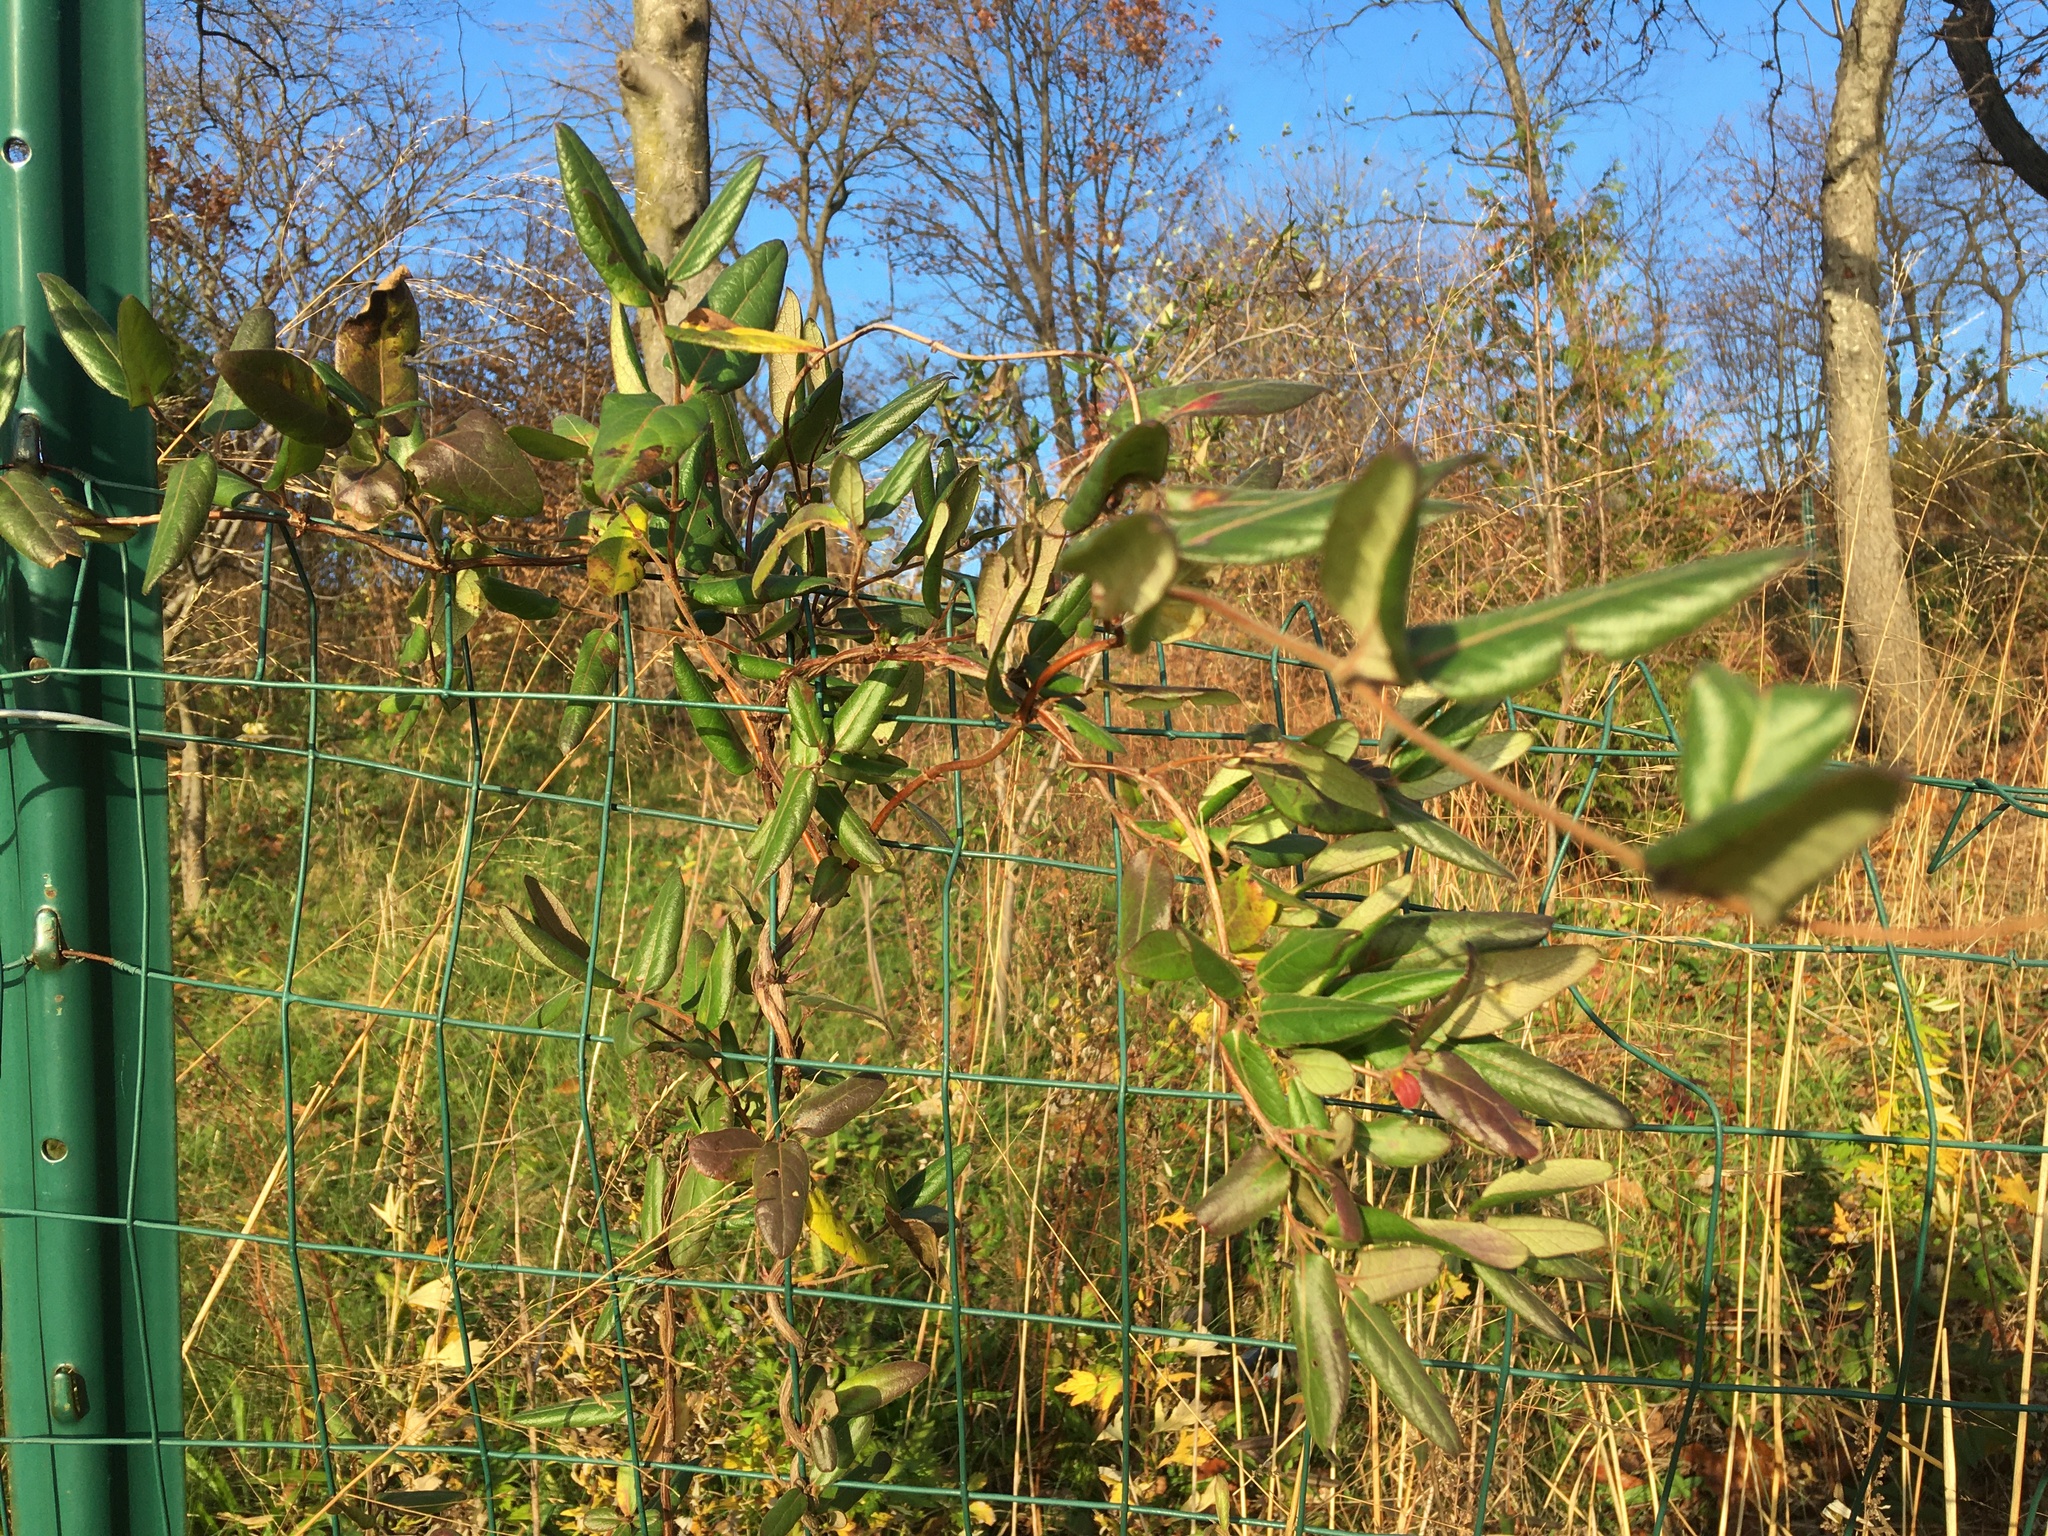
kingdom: Plantae
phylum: Tracheophyta
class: Magnoliopsida
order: Dipsacales
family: Caprifoliaceae
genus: Lonicera
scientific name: Lonicera japonica
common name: Japanese honeysuckle
